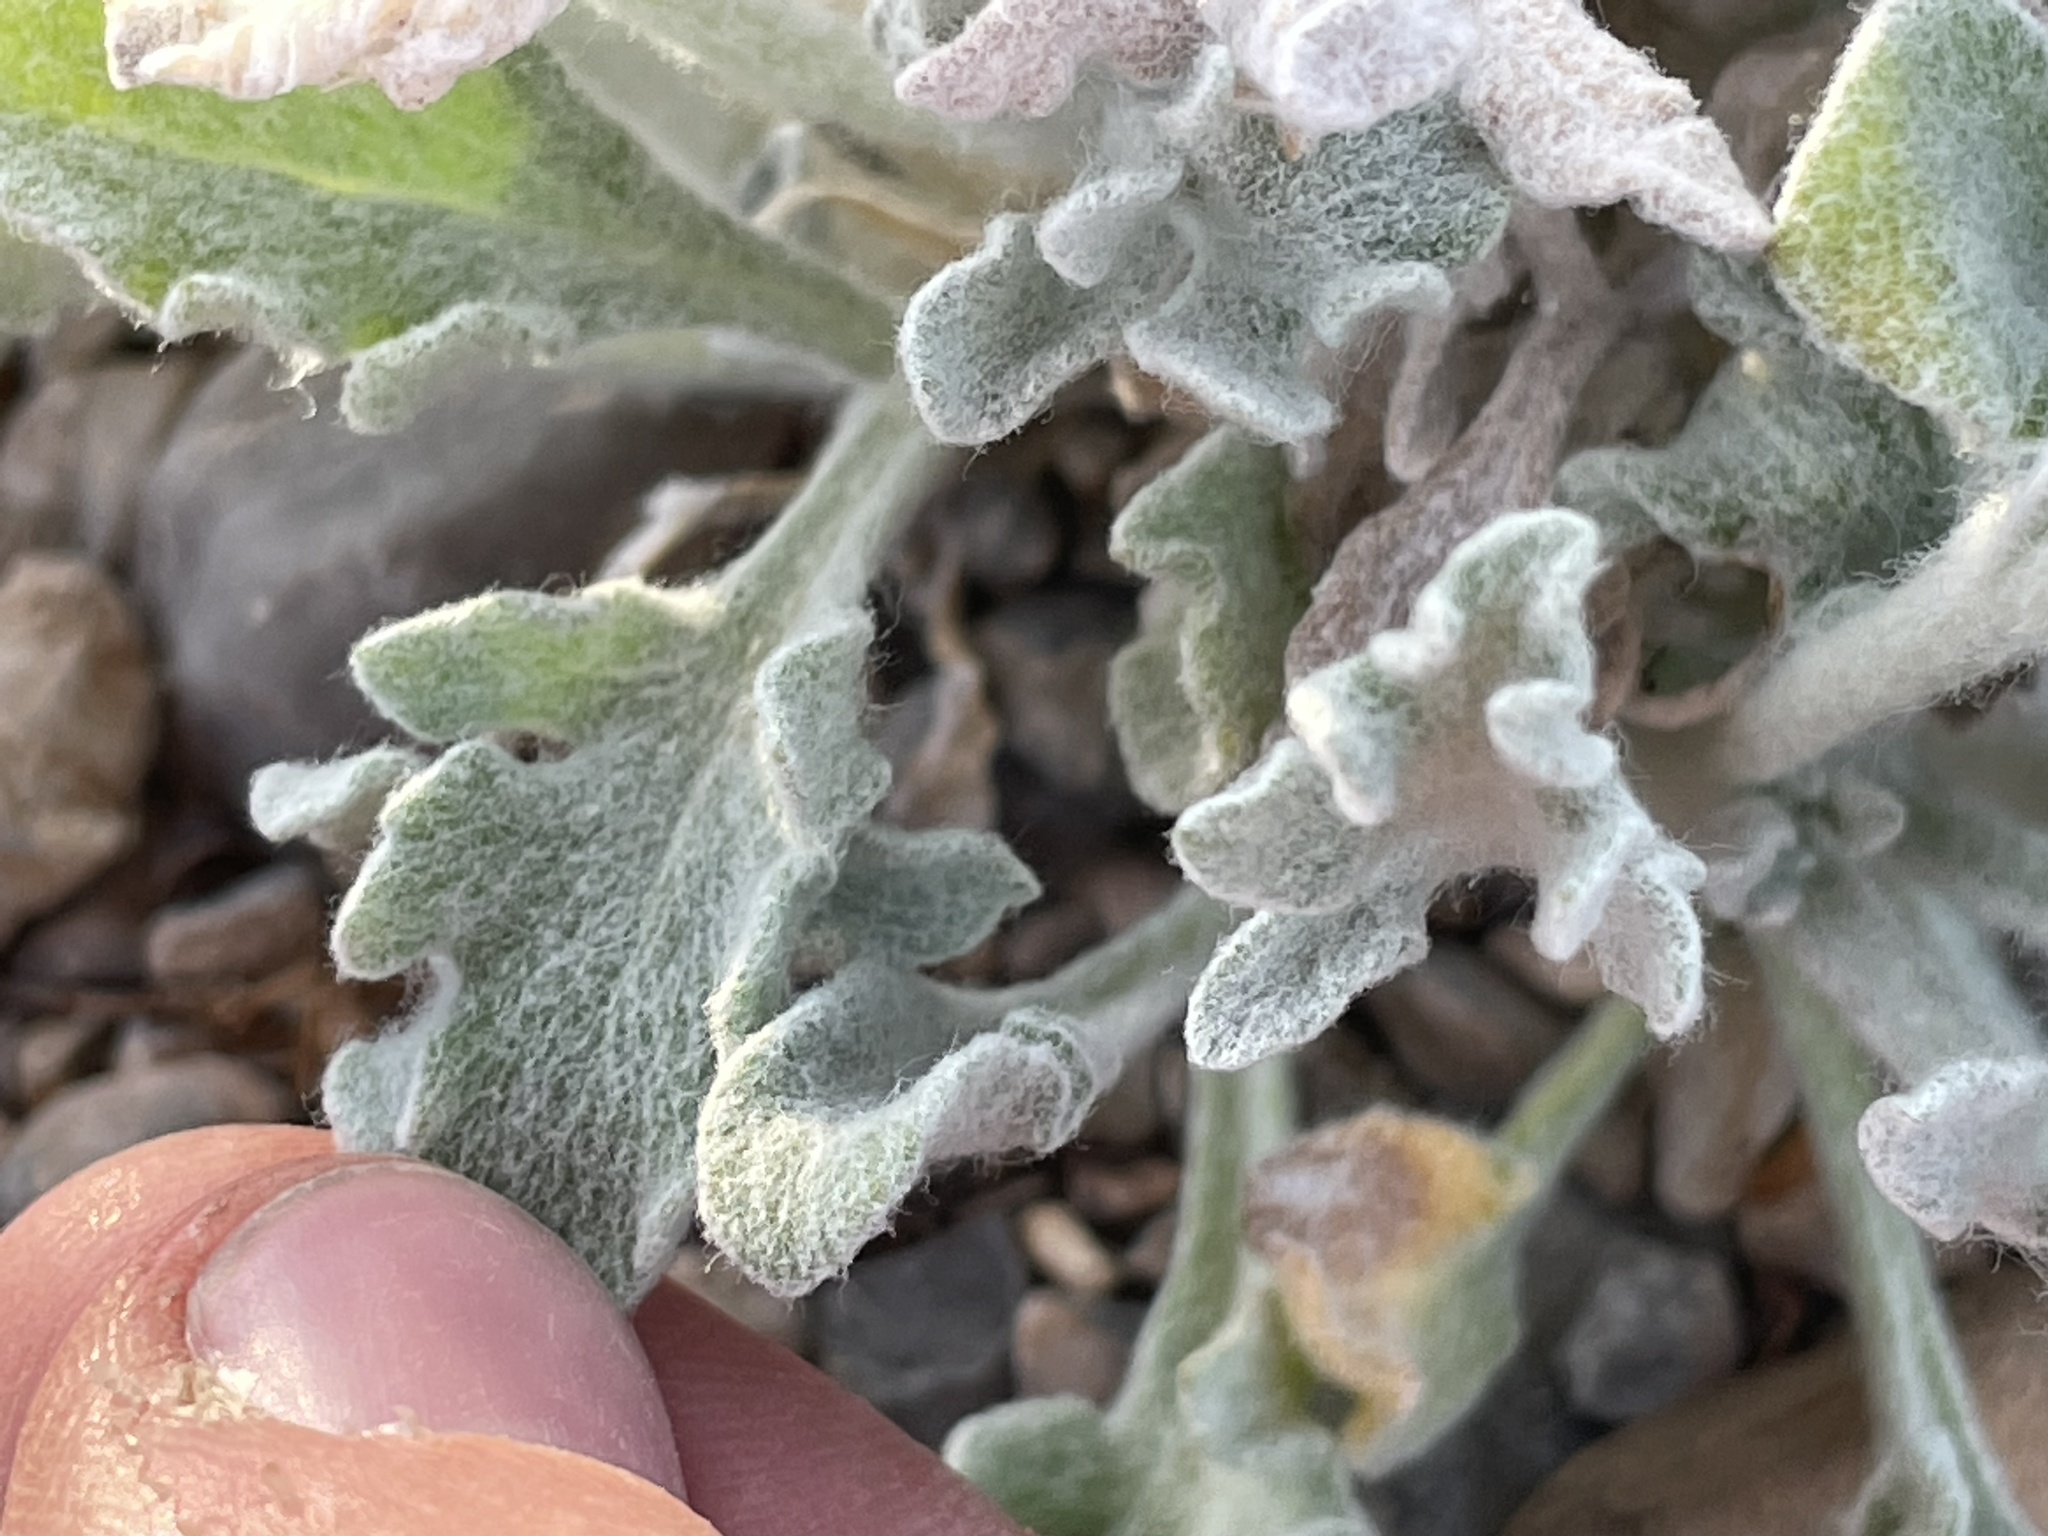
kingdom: Plantae
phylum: Tracheophyta
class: Magnoliopsida
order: Asterales
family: Asteraceae
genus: Baileya
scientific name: Baileya multiradiata
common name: Desert-marigold
